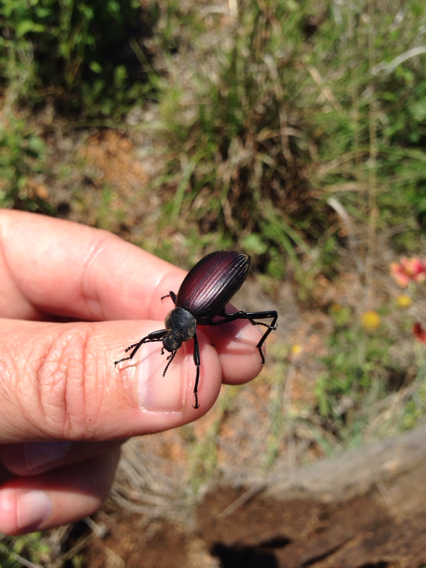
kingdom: Animalia
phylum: Arthropoda
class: Insecta
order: Coleoptera
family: Tenebrionidae
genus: Eleodes
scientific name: Eleodes hispilabris
